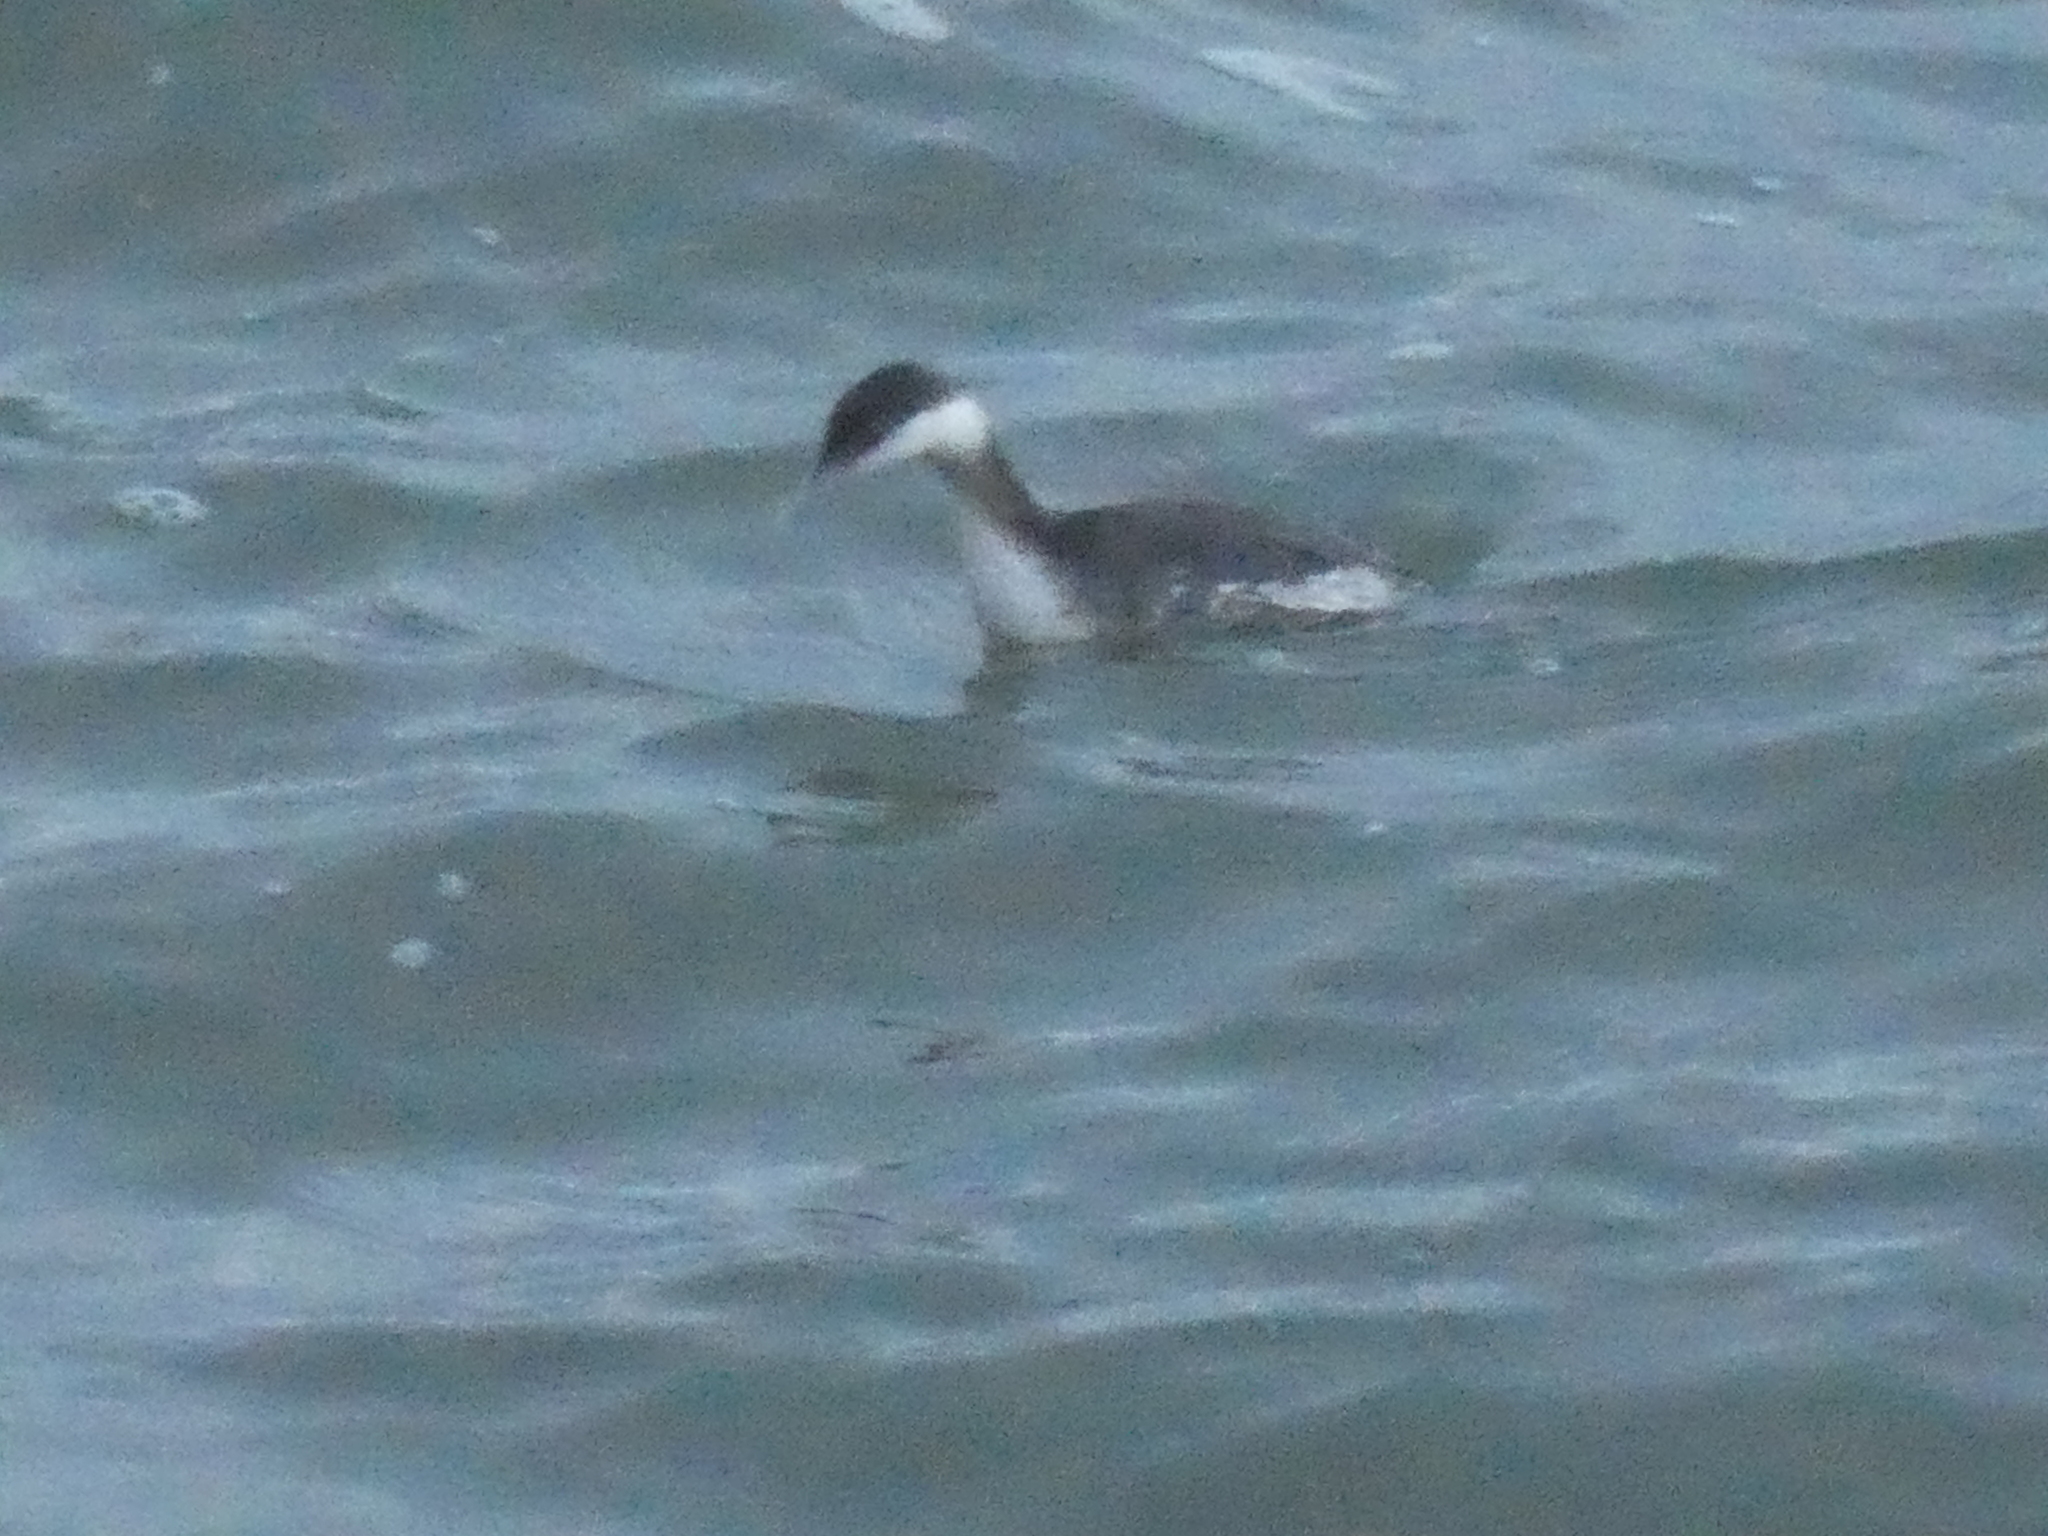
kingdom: Animalia
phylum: Chordata
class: Aves
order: Podicipediformes
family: Podicipedidae
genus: Podiceps
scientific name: Podiceps auritus
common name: Horned grebe
